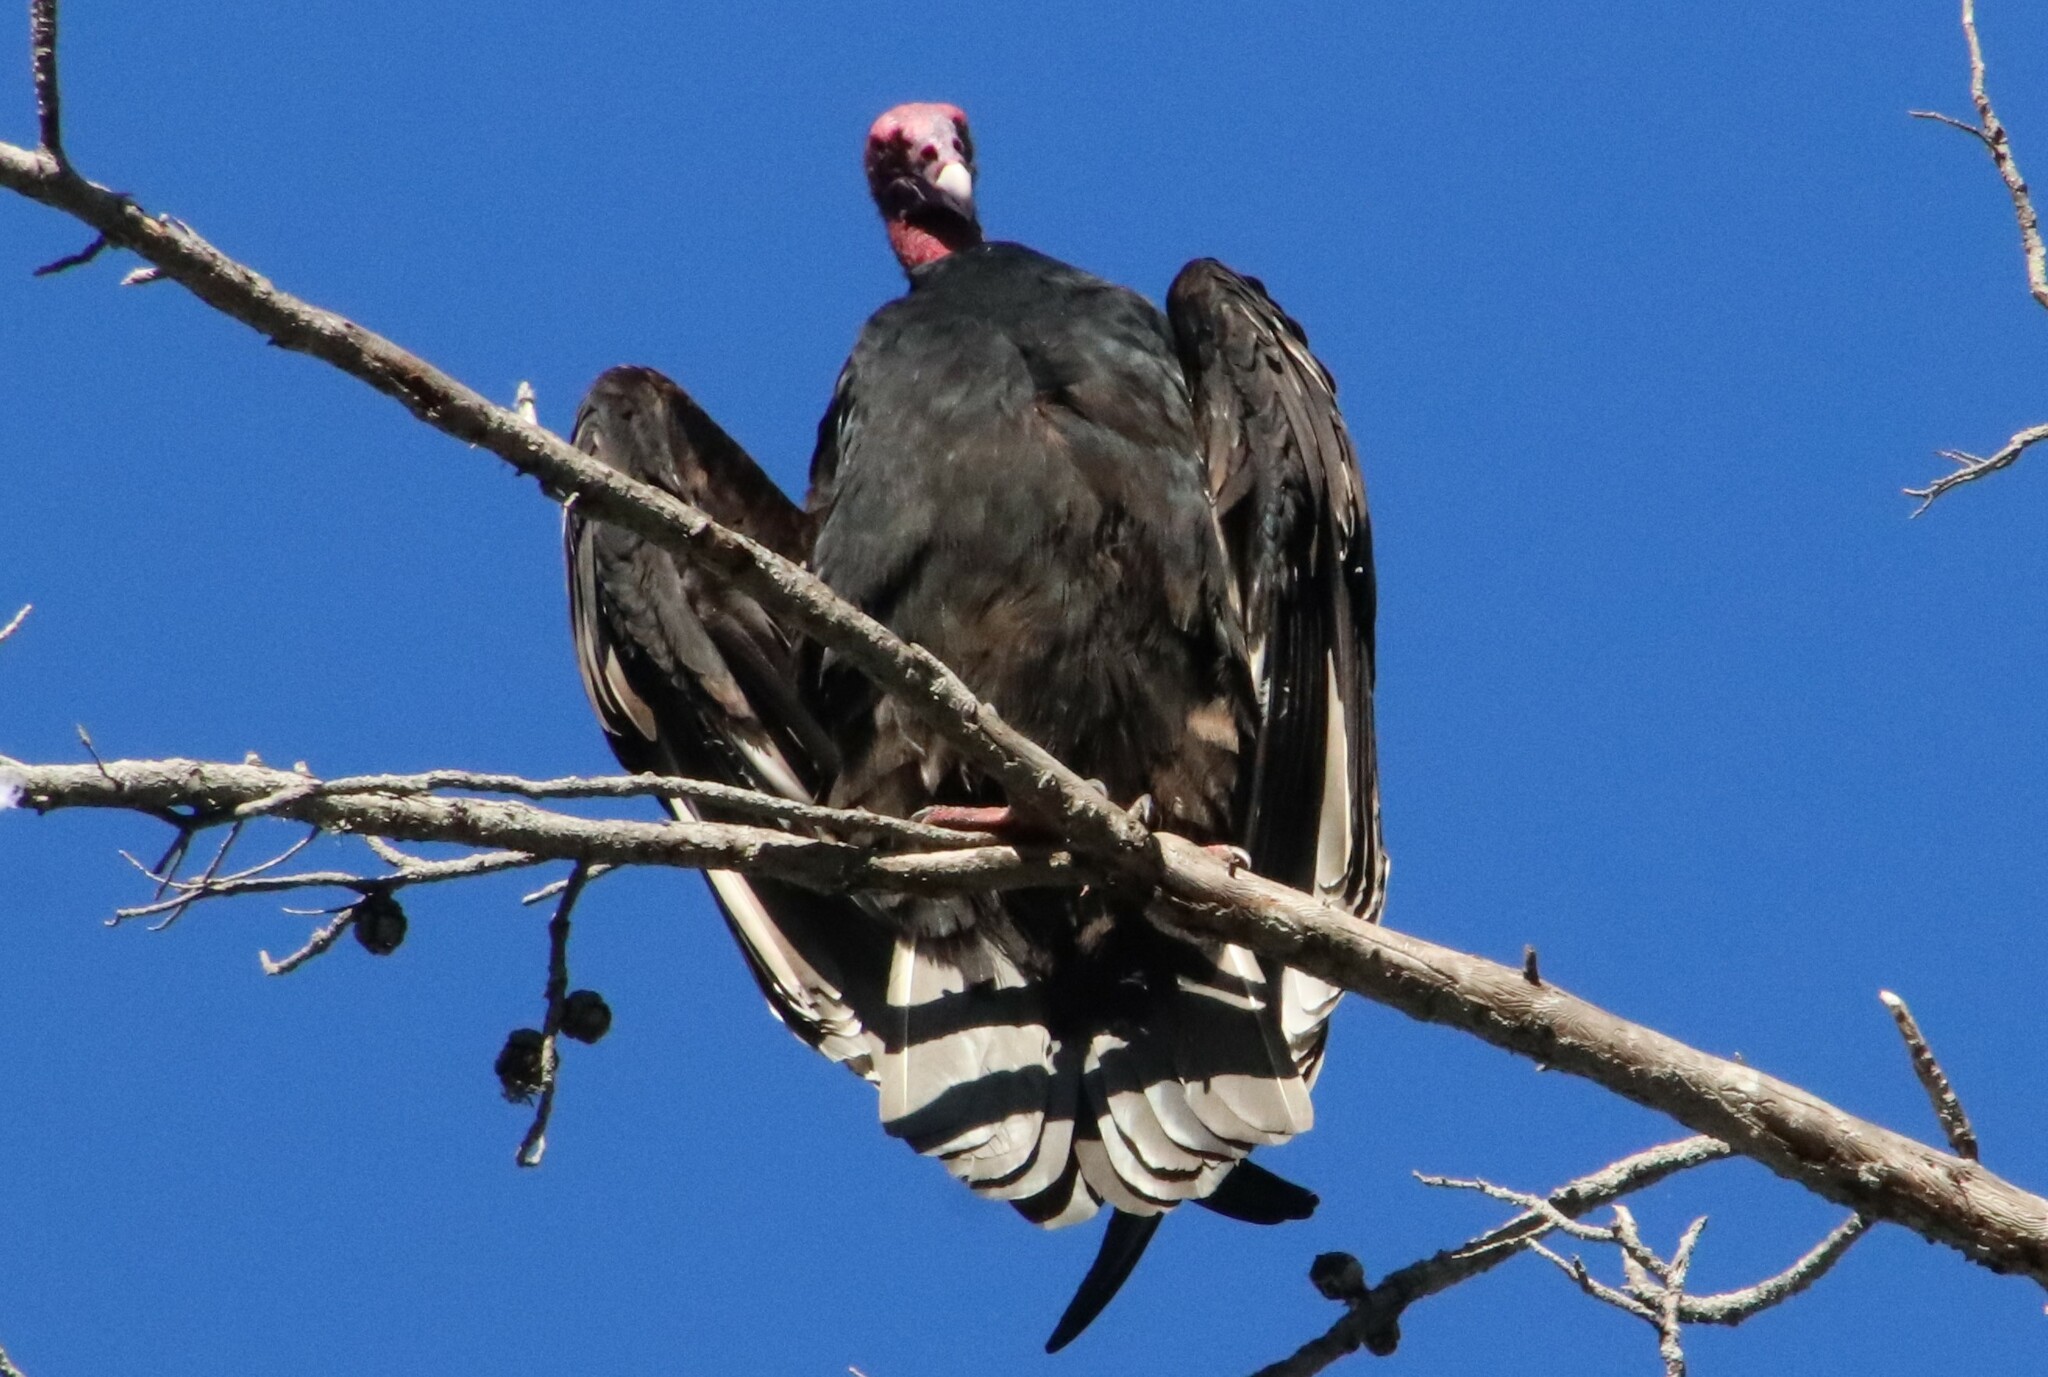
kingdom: Animalia
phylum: Chordata
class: Aves
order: Accipitriformes
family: Cathartidae
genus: Cathartes
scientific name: Cathartes aura
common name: Turkey vulture
